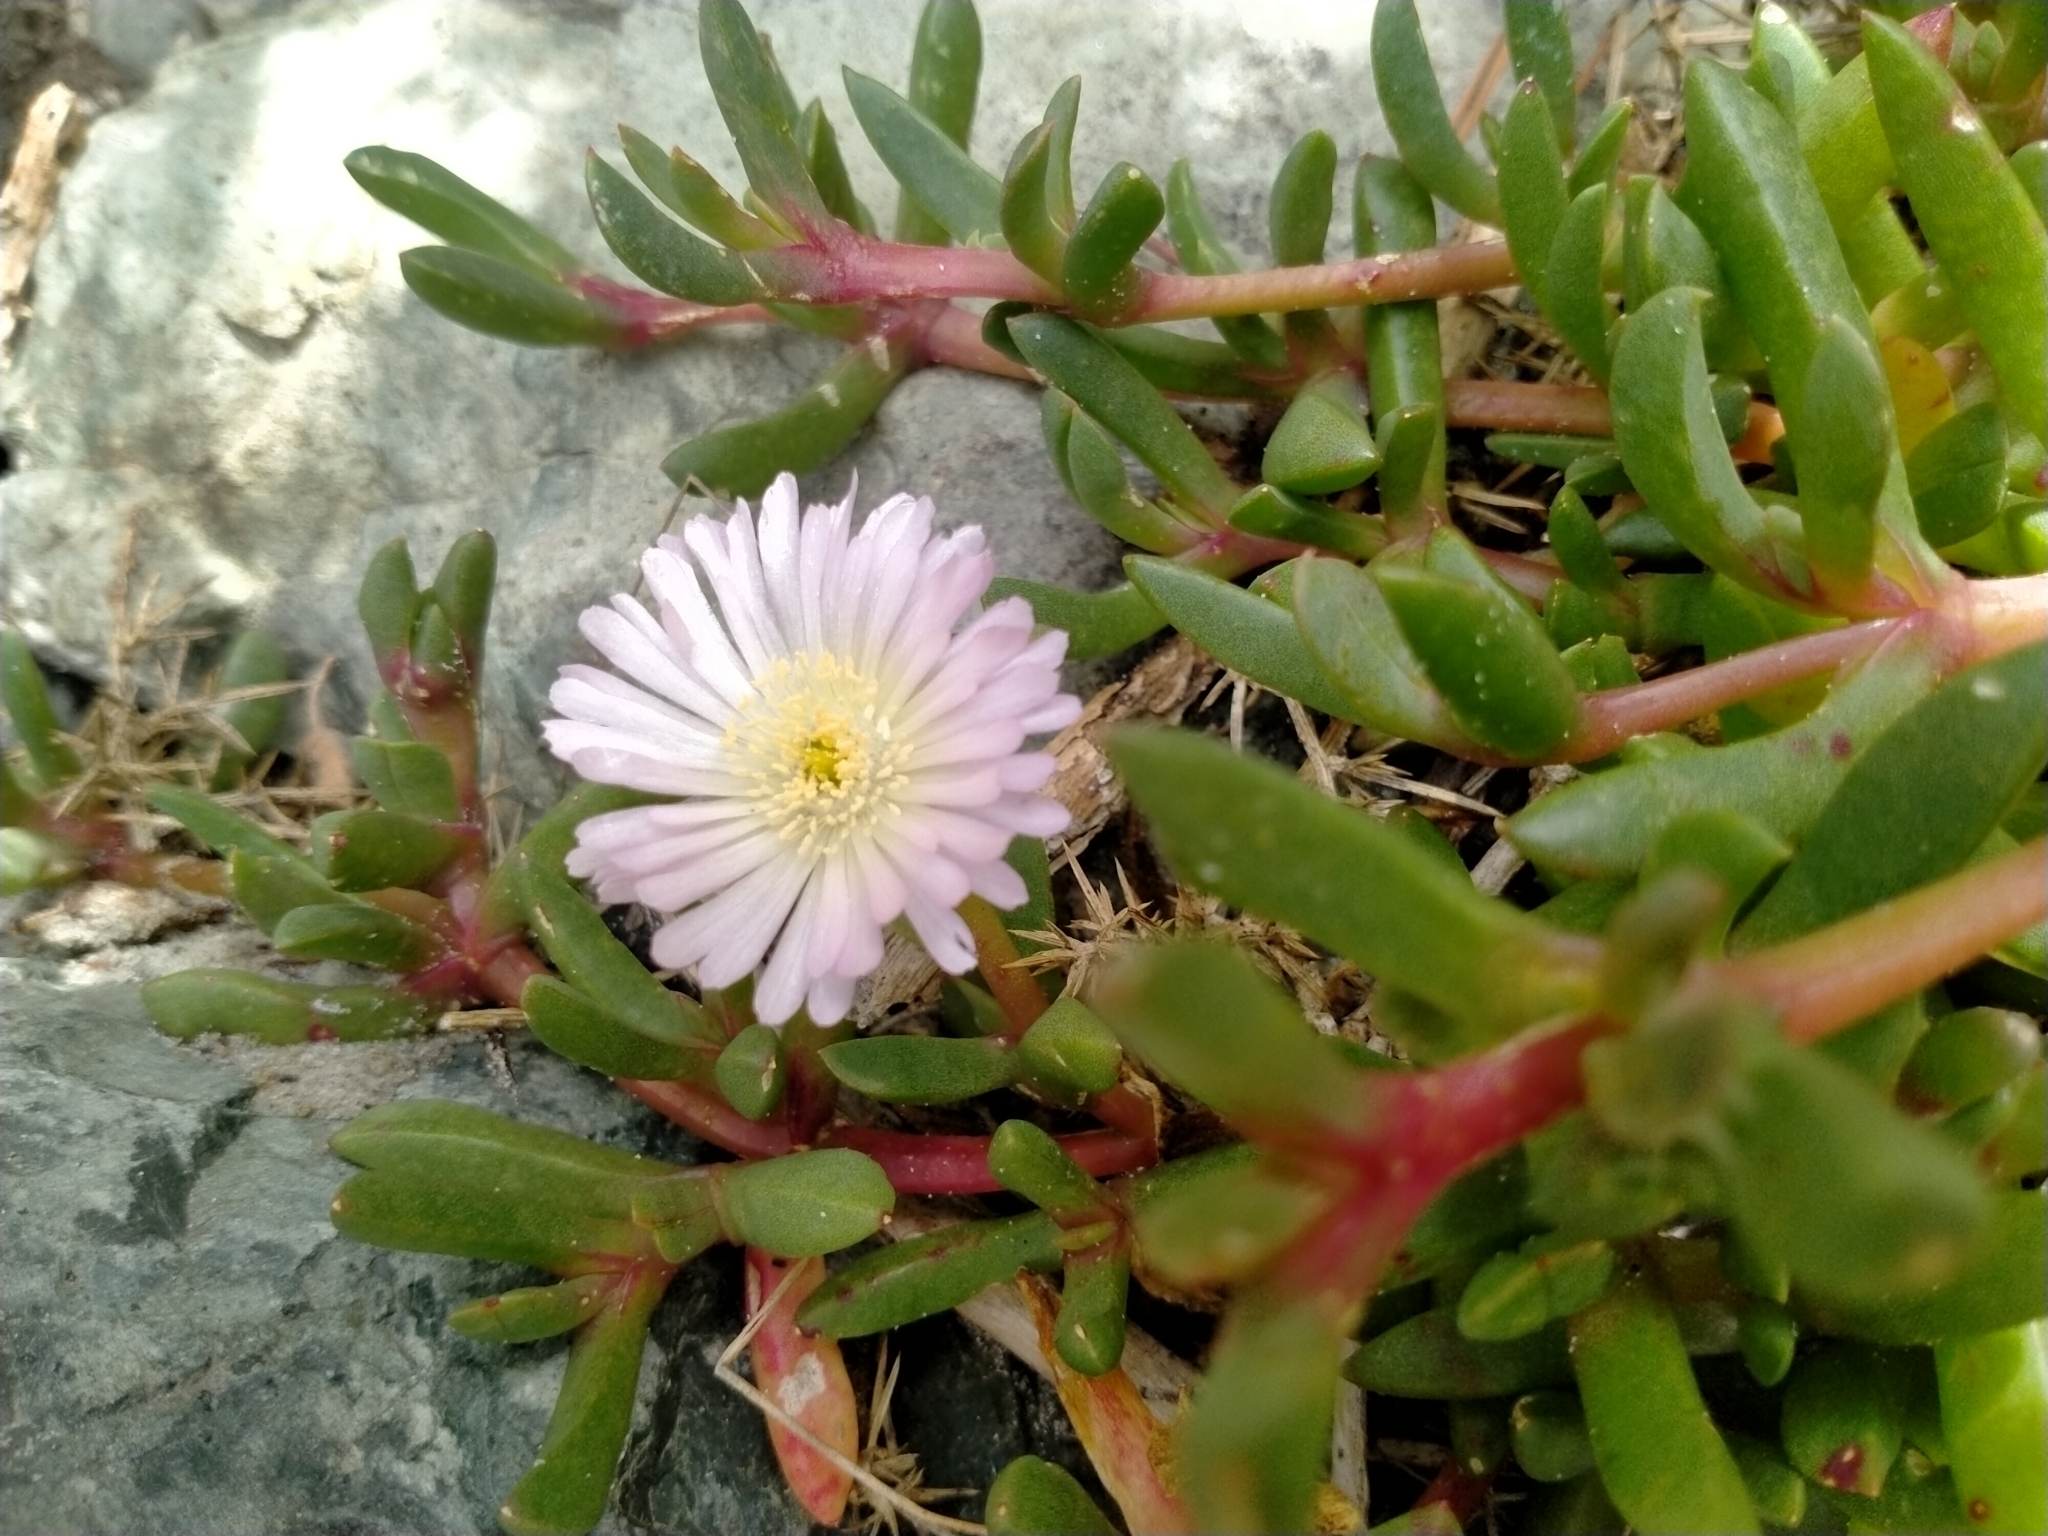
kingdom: Plantae
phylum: Tracheophyta
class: Magnoliopsida
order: Caryophyllales
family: Aizoaceae
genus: Disphyma
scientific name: Disphyma australe
